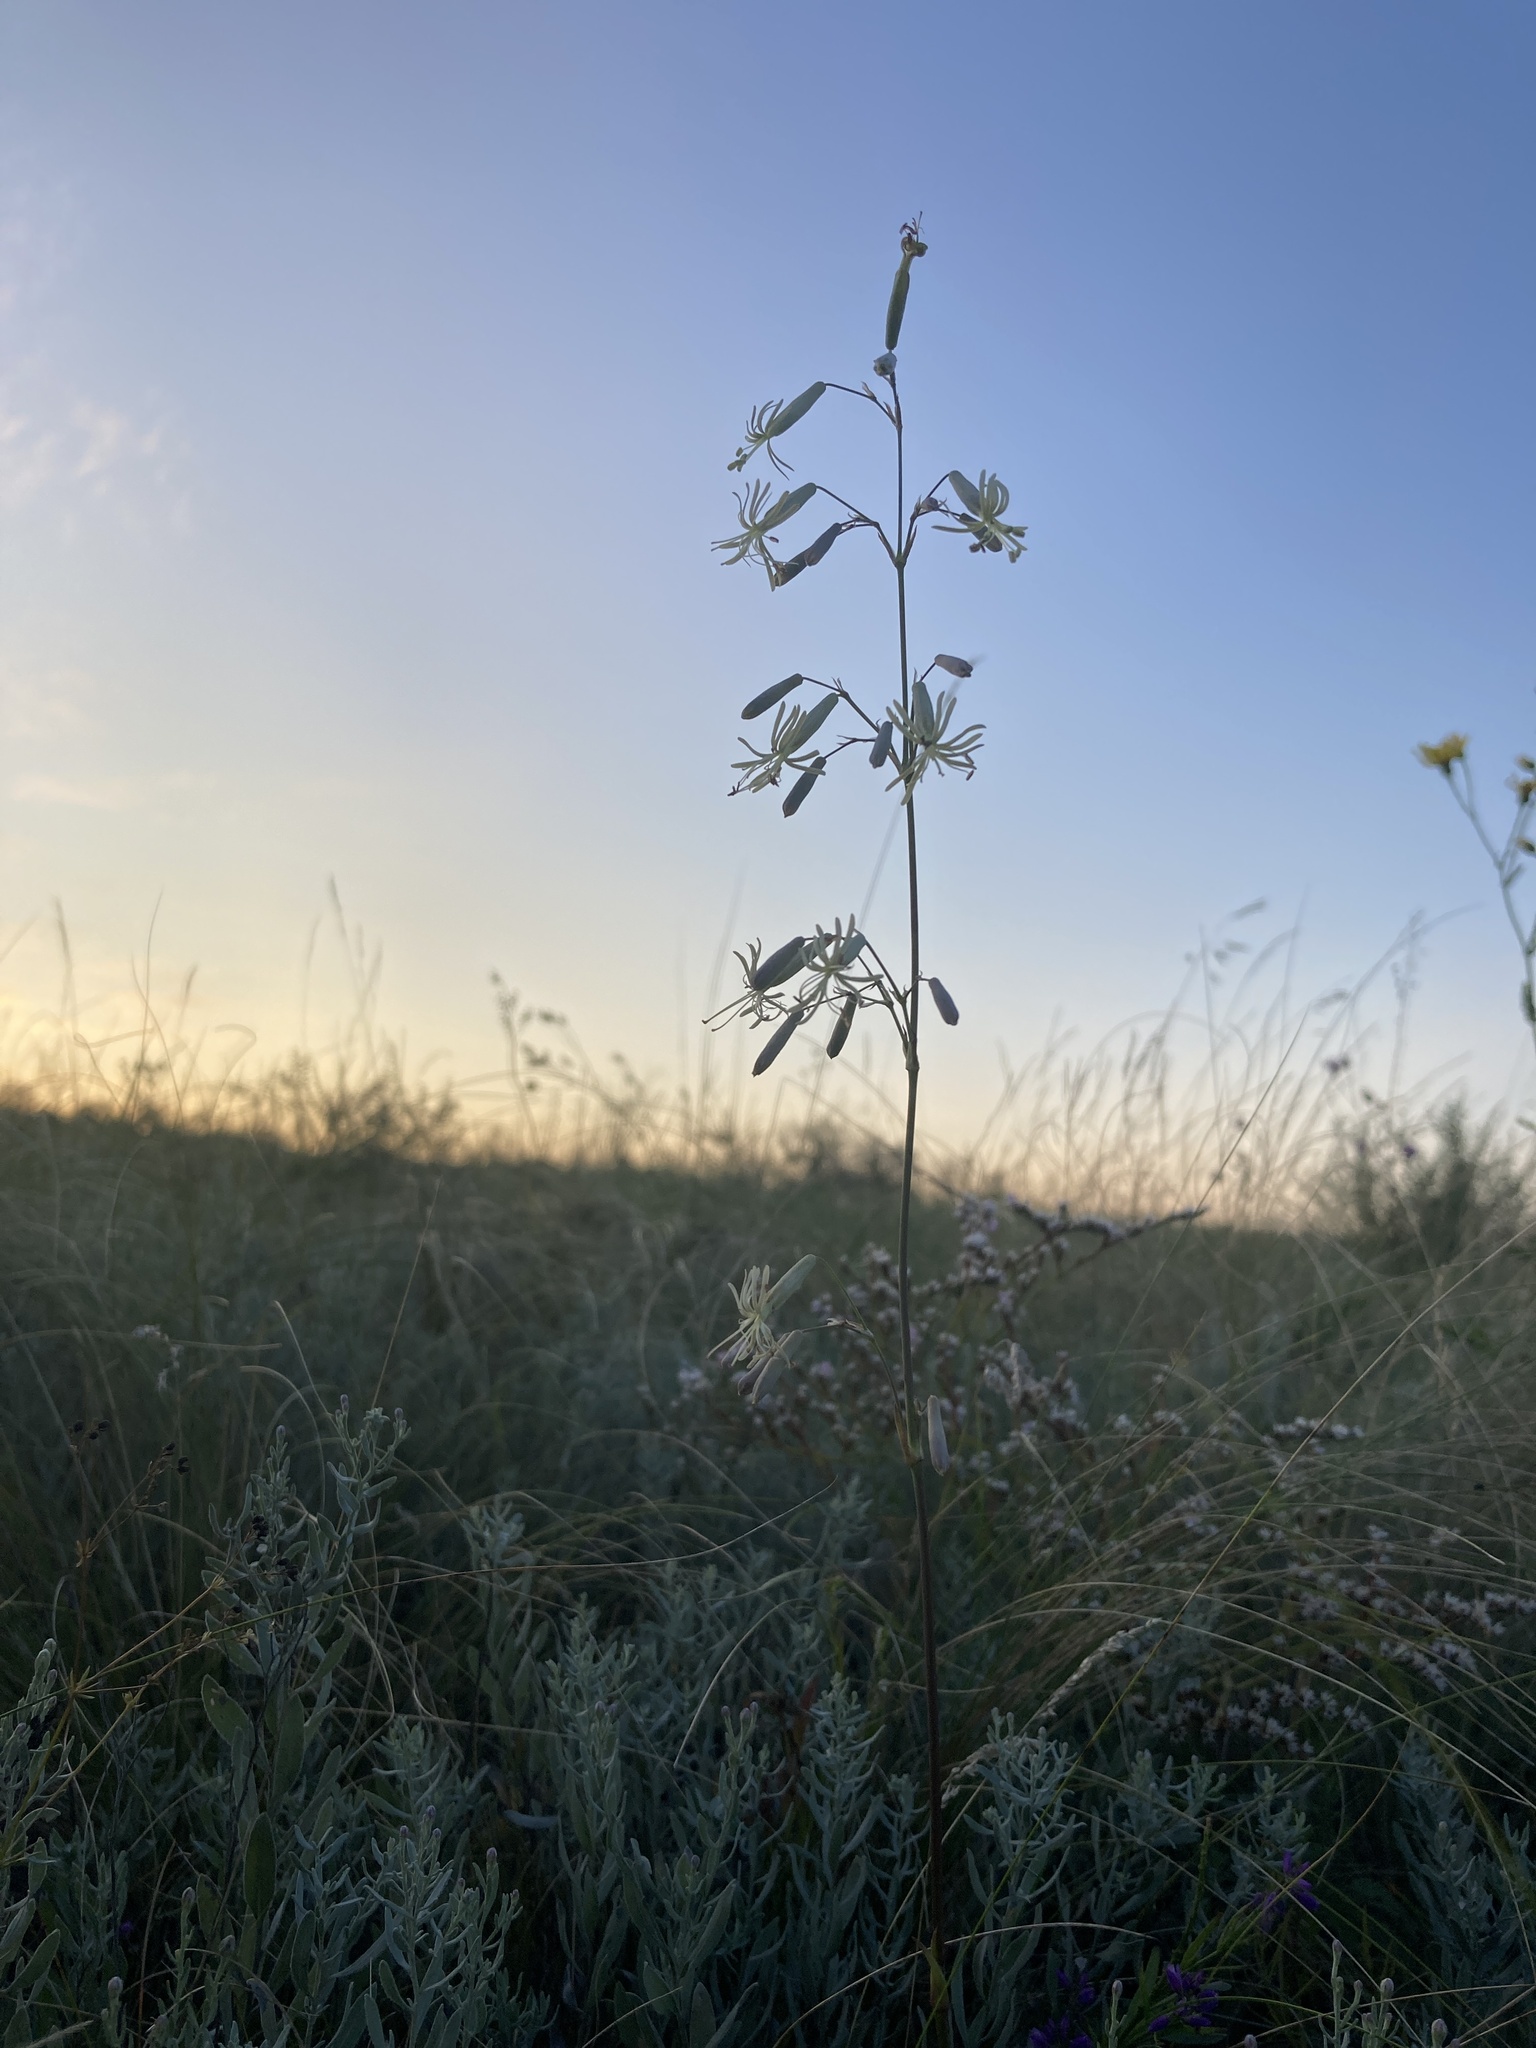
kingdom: Plantae
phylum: Tracheophyta
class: Magnoliopsida
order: Caryophyllales
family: Caryophyllaceae
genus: Silene
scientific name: Silene chlorantha
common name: Yellowgreen catchfly
